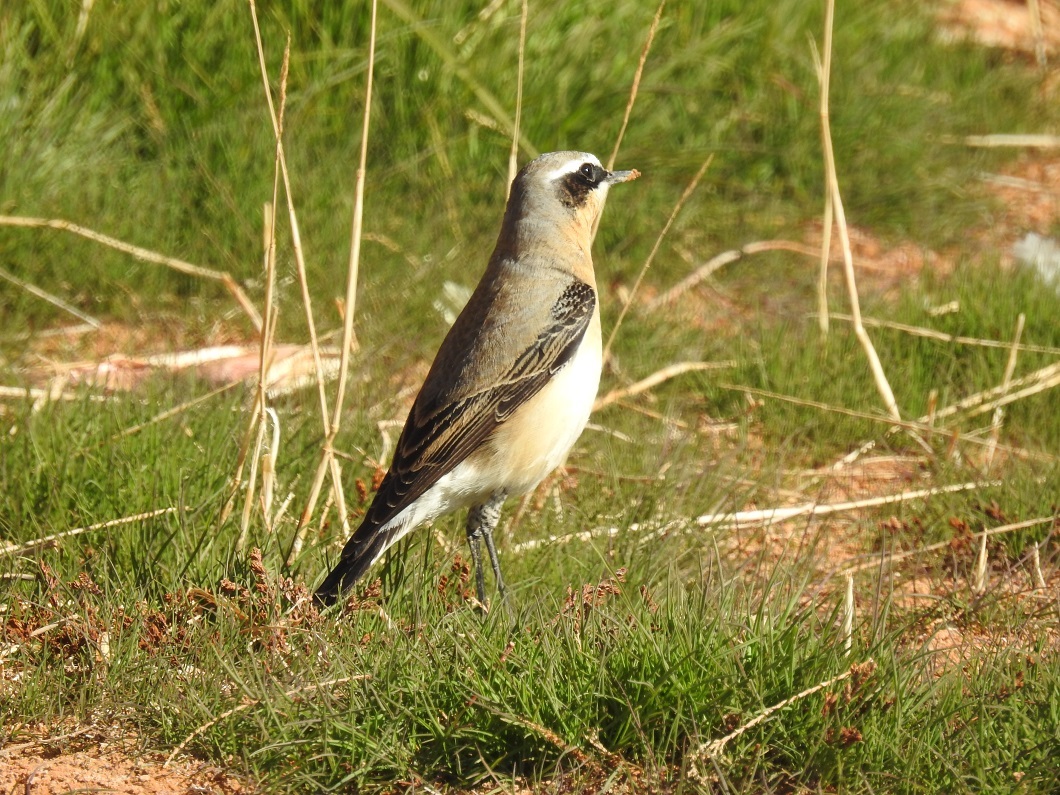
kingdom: Animalia
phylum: Chordata
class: Aves
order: Passeriformes
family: Muscicapidae
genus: Oenanthe
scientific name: Oenanthe oenanthe
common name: Northern wheatear
